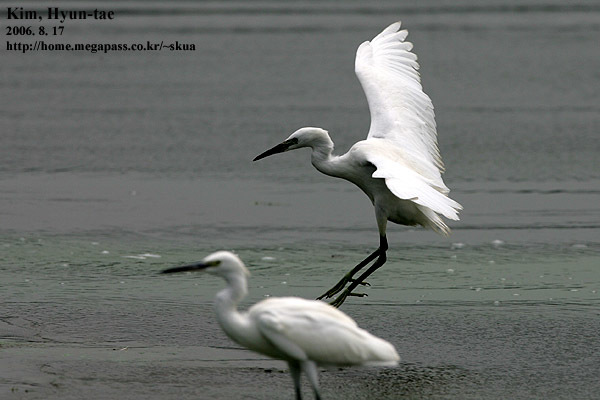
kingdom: Animalia
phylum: Chordata
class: Aves
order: Pelecaniformes
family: Ardeidae
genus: Egretta
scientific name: Egretta garzetta
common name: Little egret
